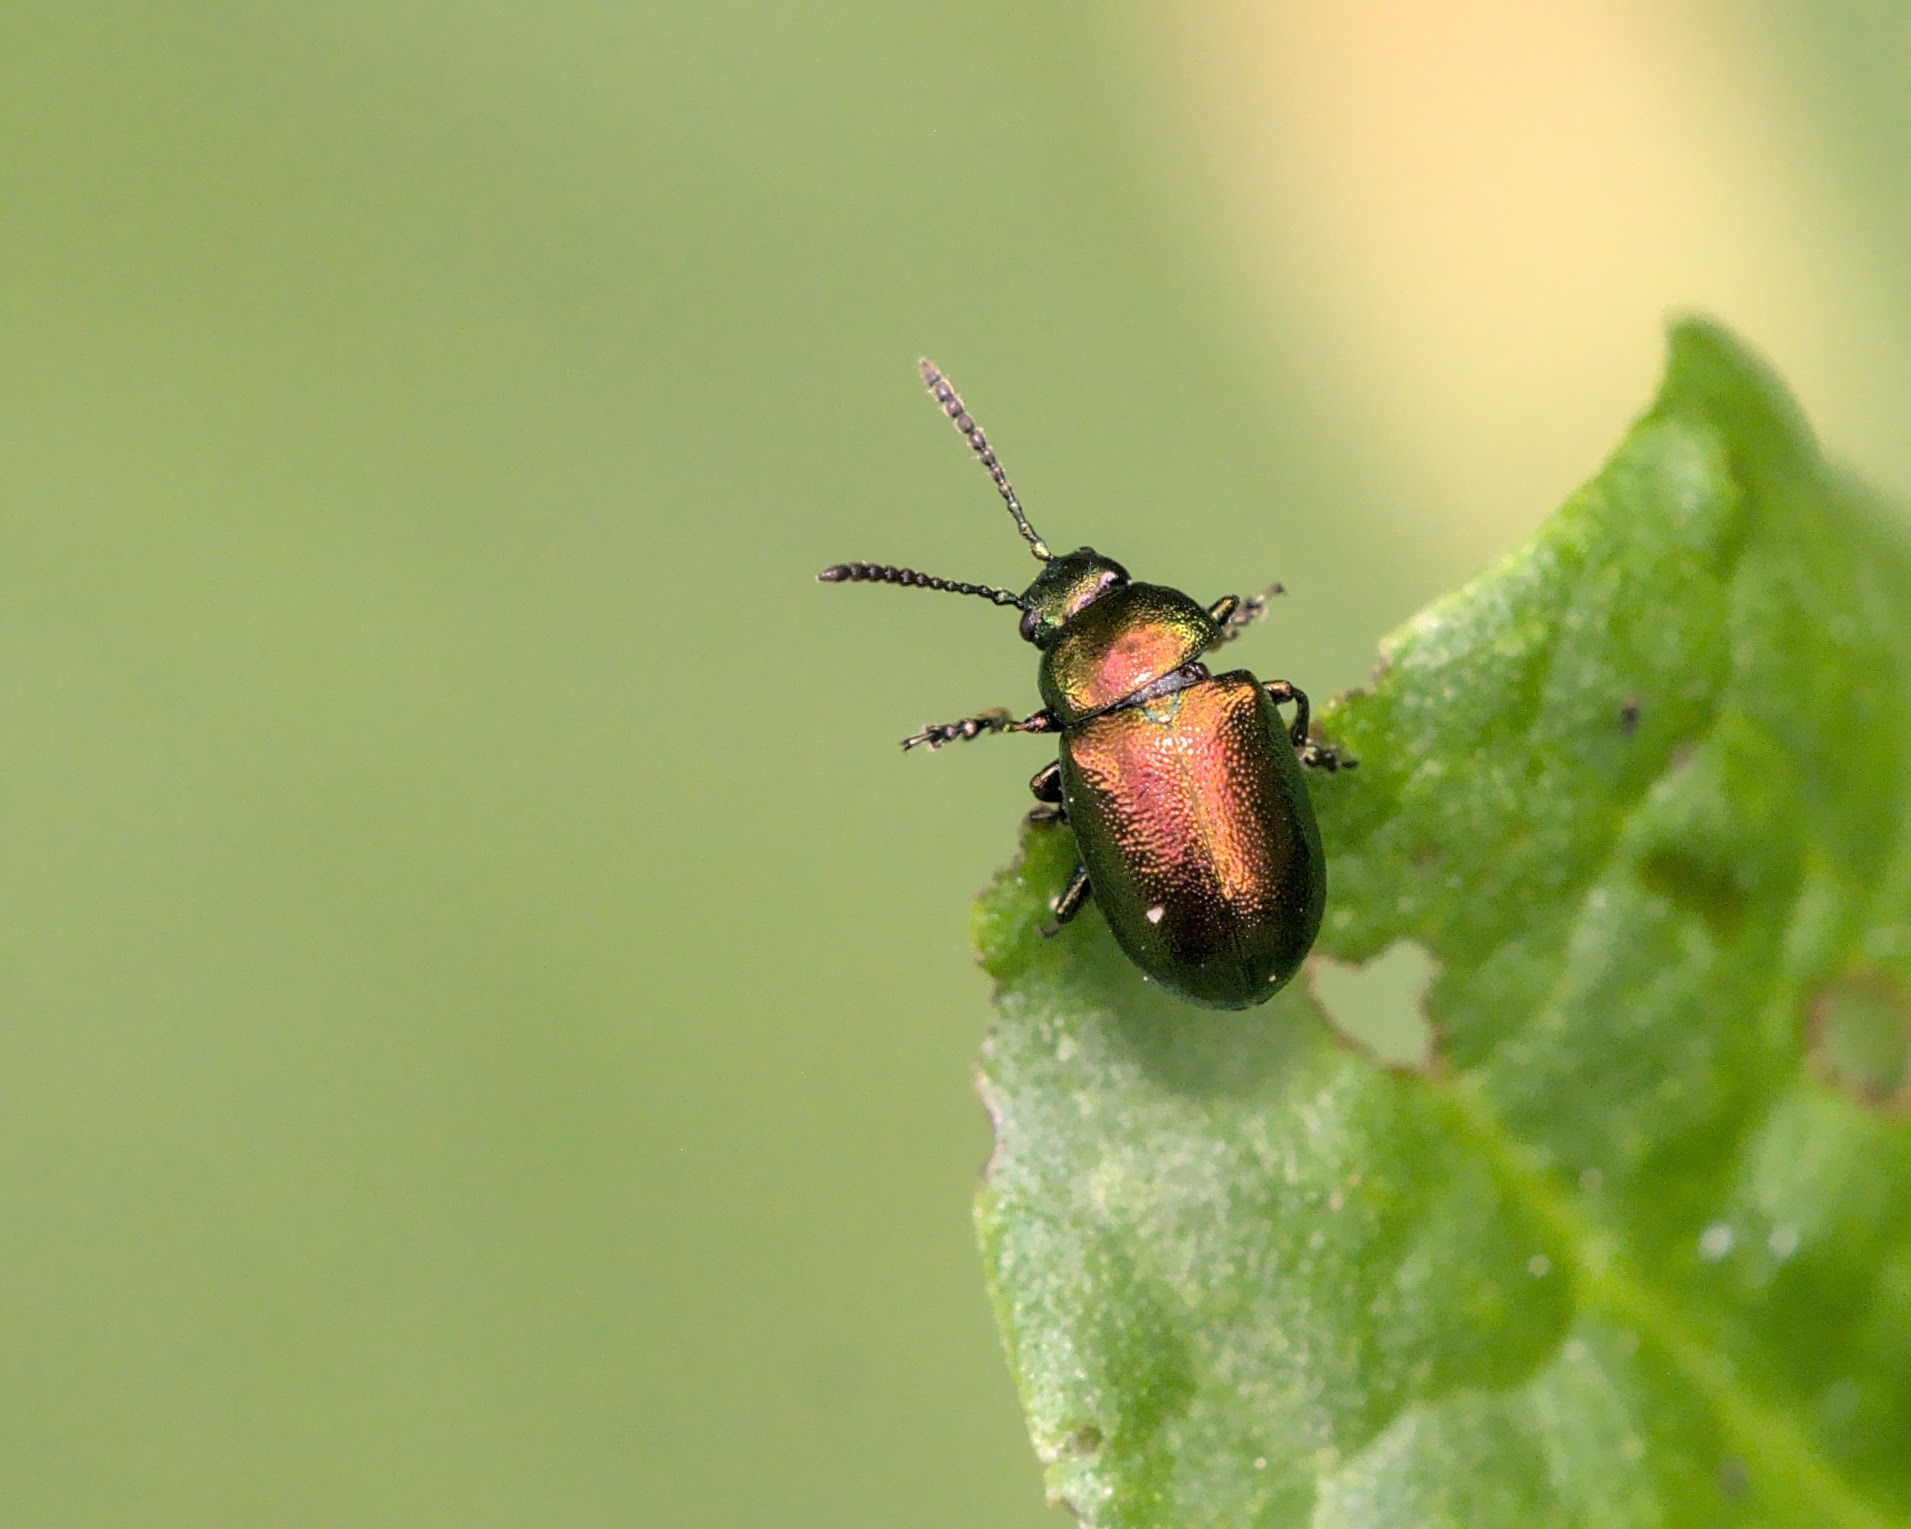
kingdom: Animalia
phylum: Arthropoda
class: Insecta
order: Coleoptera
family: Chrysomelidae
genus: Gastrophysa
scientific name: Gastrophysa viridula
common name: Green dock beetle
